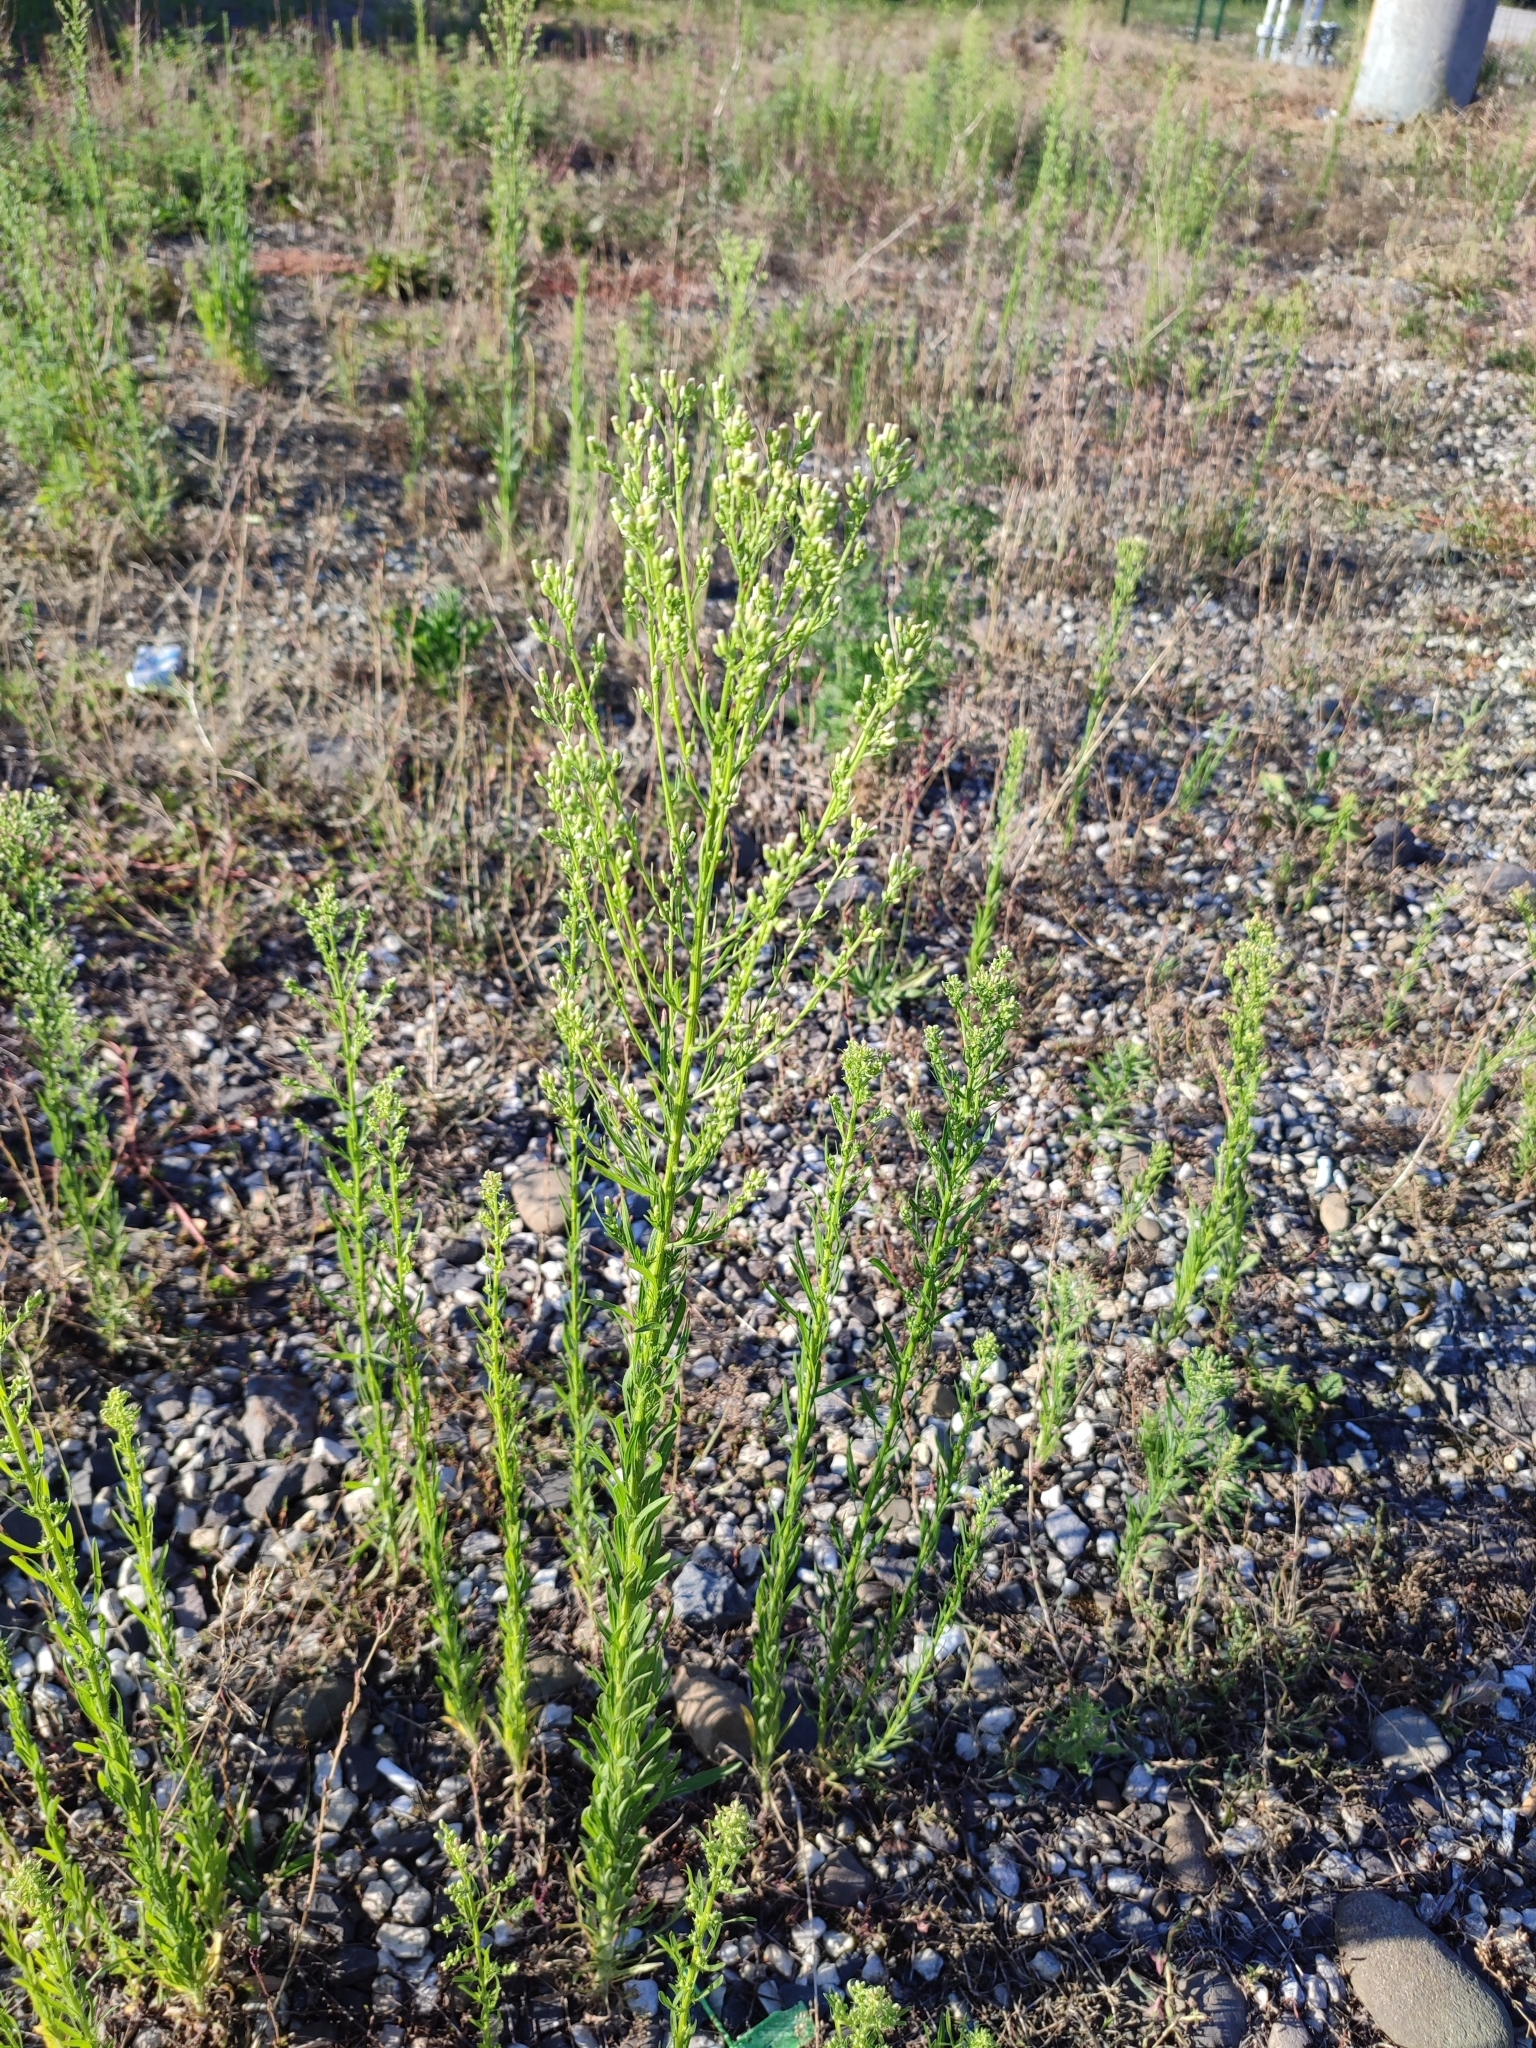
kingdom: Plantae
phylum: Tracheophyta
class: Magnoliopsida
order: Asterales
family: Asteraceae
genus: Erigeron
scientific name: Erigeron canadensis
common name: Canadian fleabane
